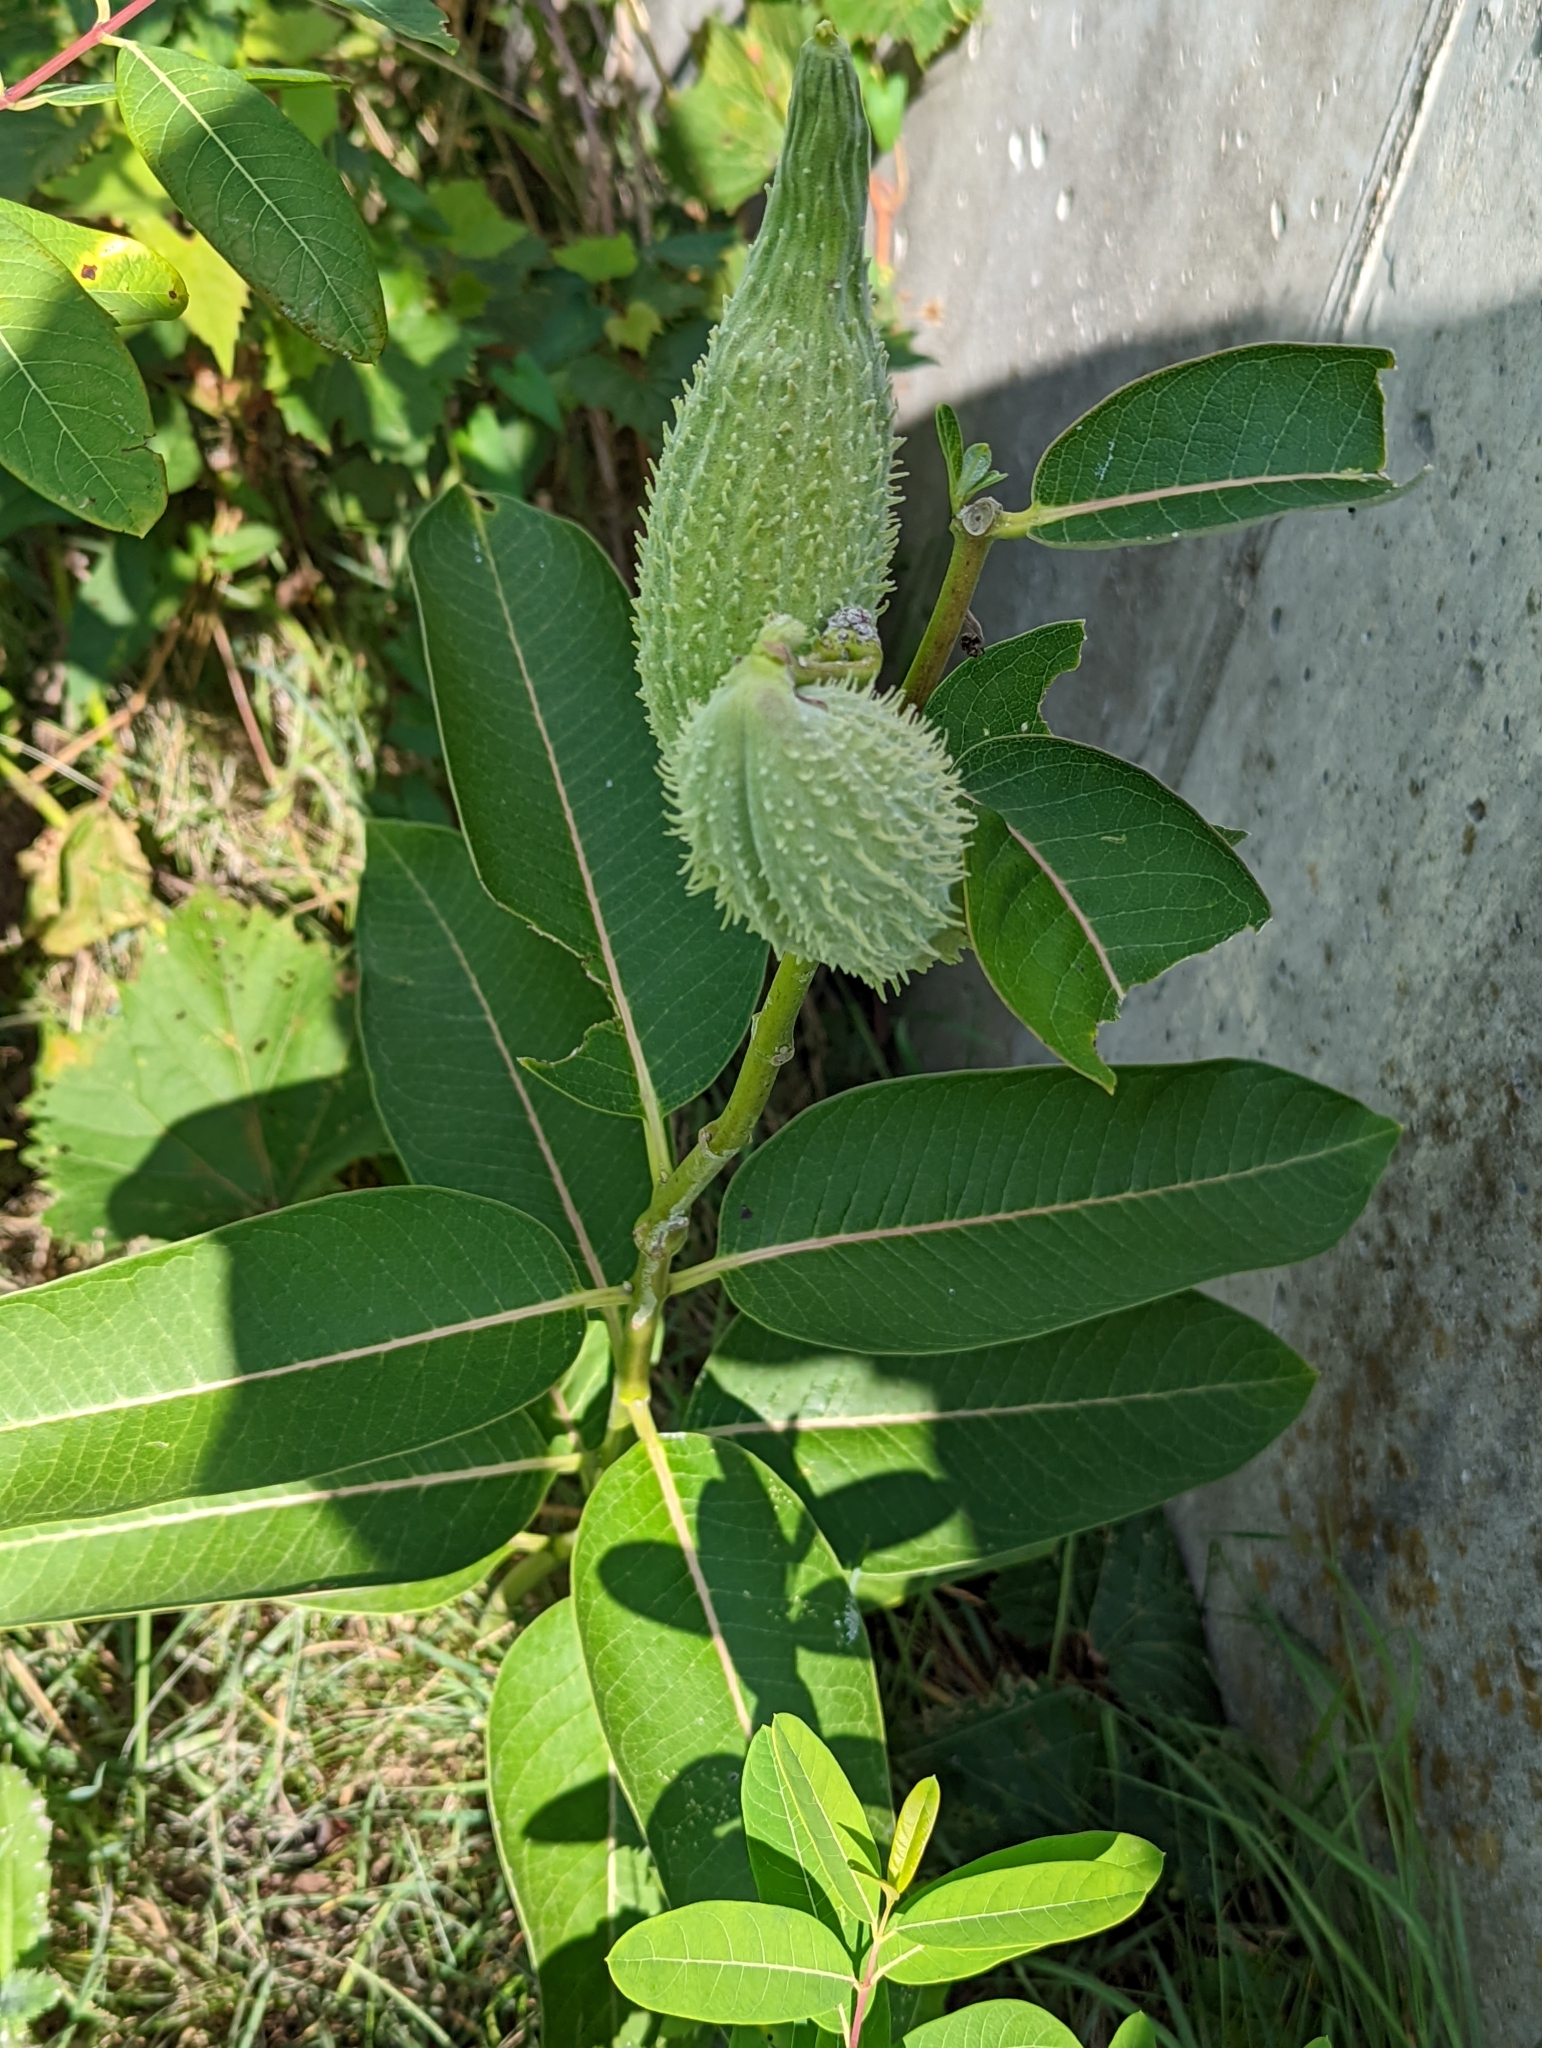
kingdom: Plantae
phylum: Tracheophyta
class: Magnoliopsida
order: Gentianales
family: Apocynaceae
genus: Asclepias
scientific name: Asclepias syriaca
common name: Common milkweed
